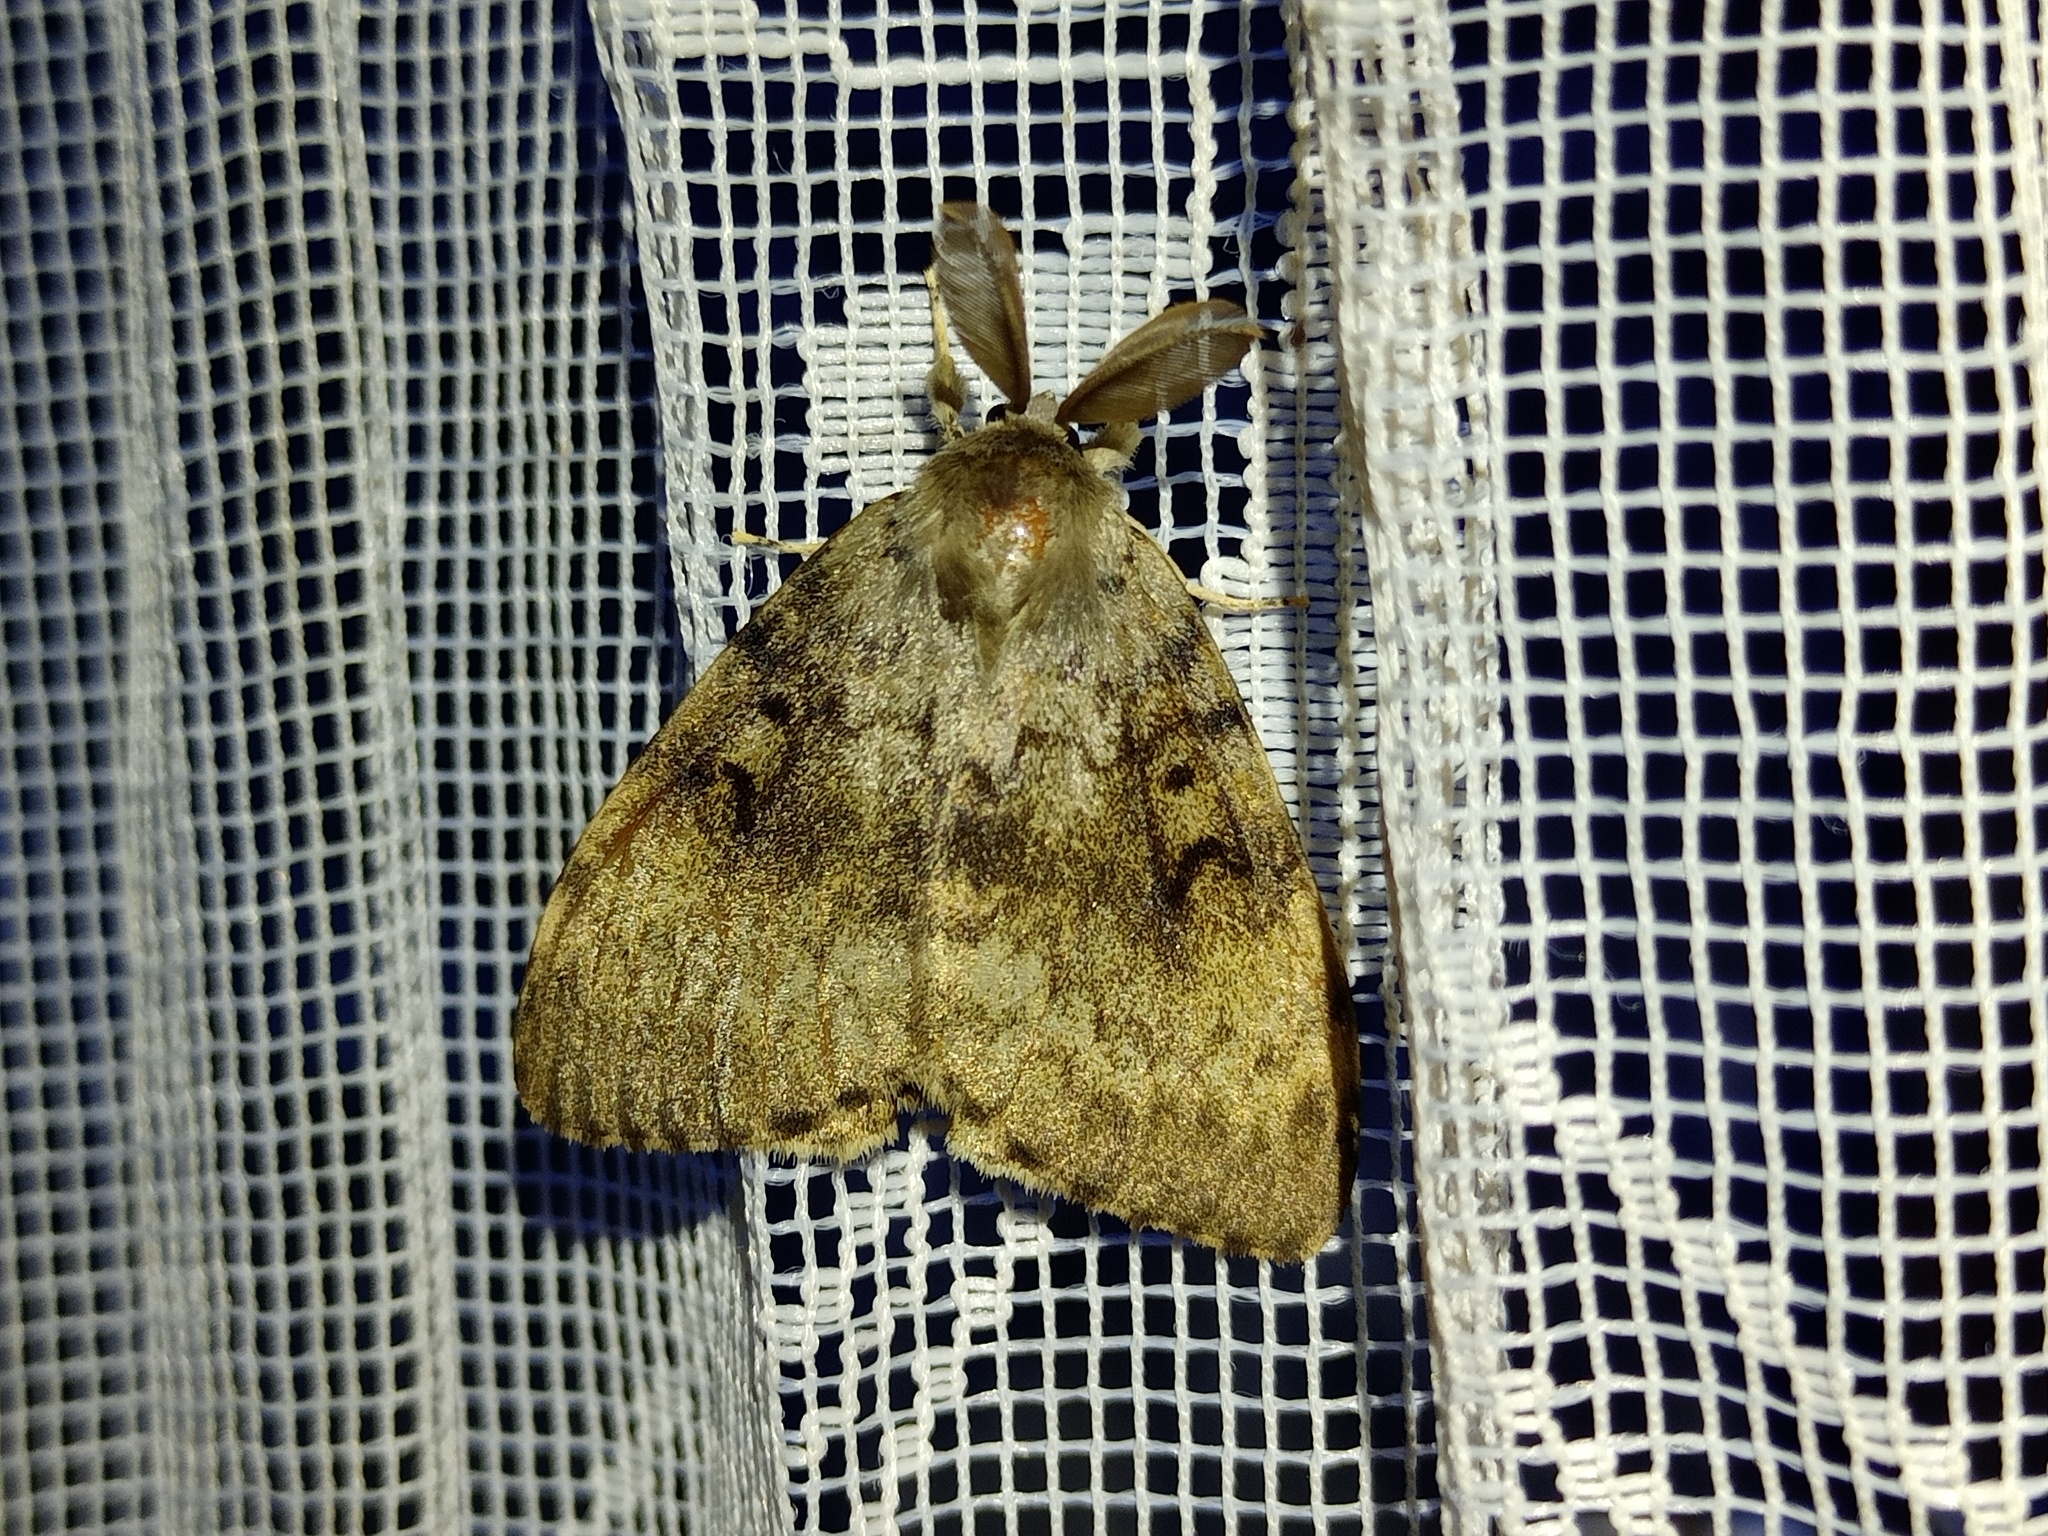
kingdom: Animalia
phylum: Arthropoda
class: Insecta
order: Lepidoptera
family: Erebidae
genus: Lymantria
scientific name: Lymantria dispar
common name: Gypsy moth
